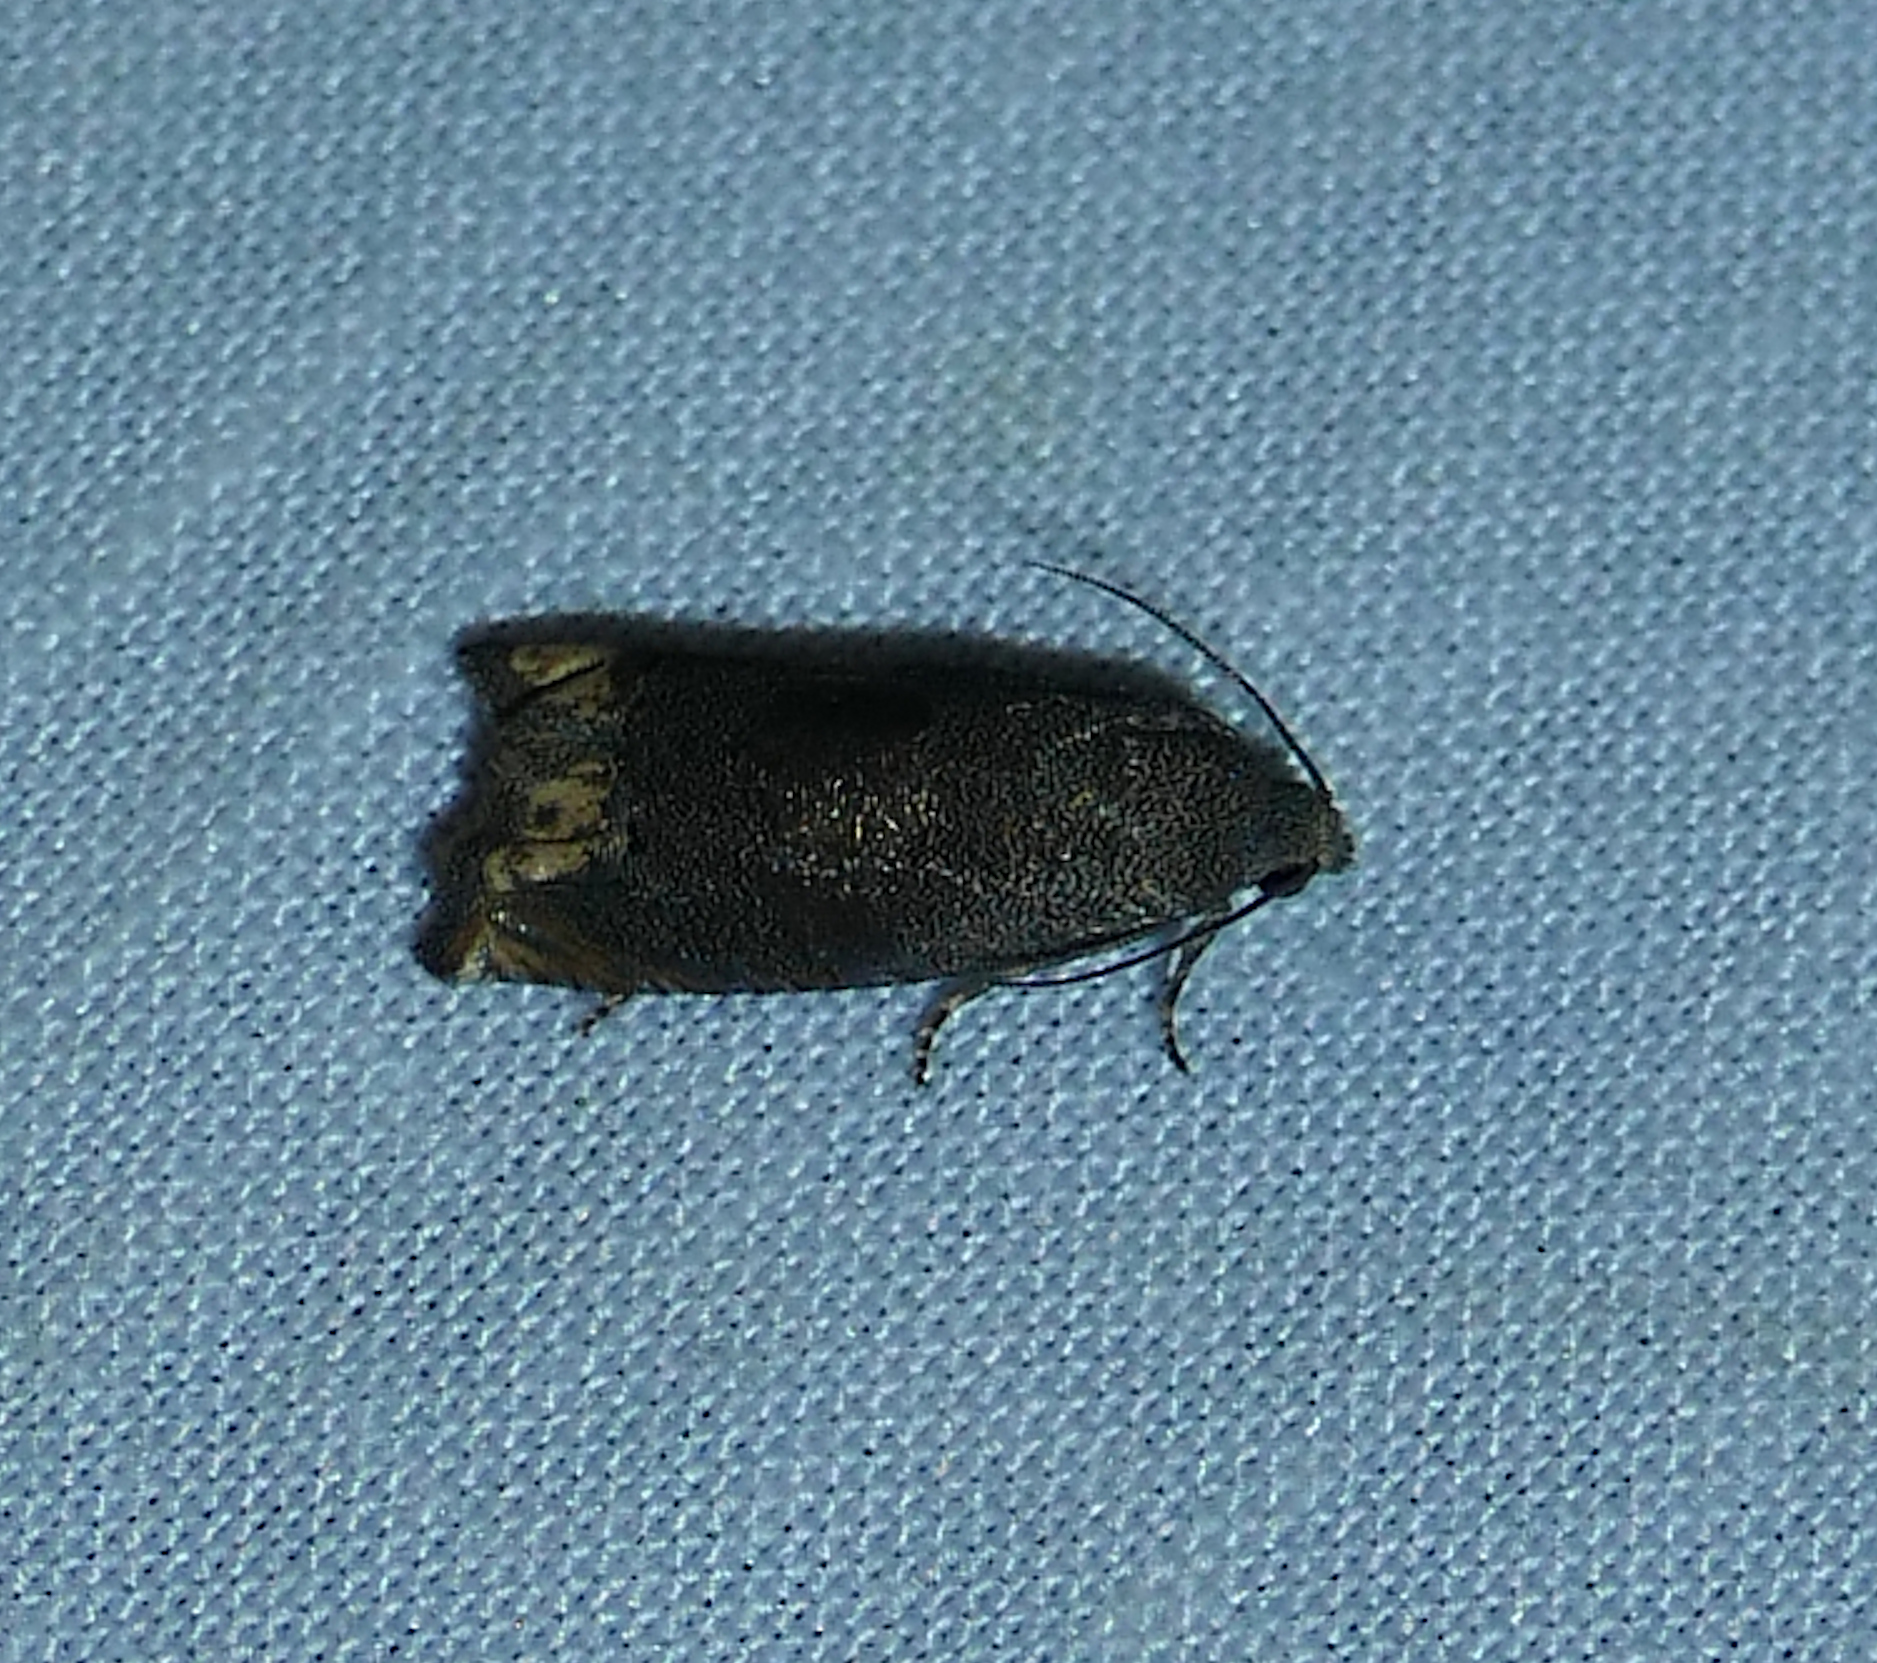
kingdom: Animalia
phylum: Arthropoda
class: Insecta
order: Lepidoptera
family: Tortricidae
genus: Epiblema
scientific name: Epiblema strenuana
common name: Ragweed borer moth
